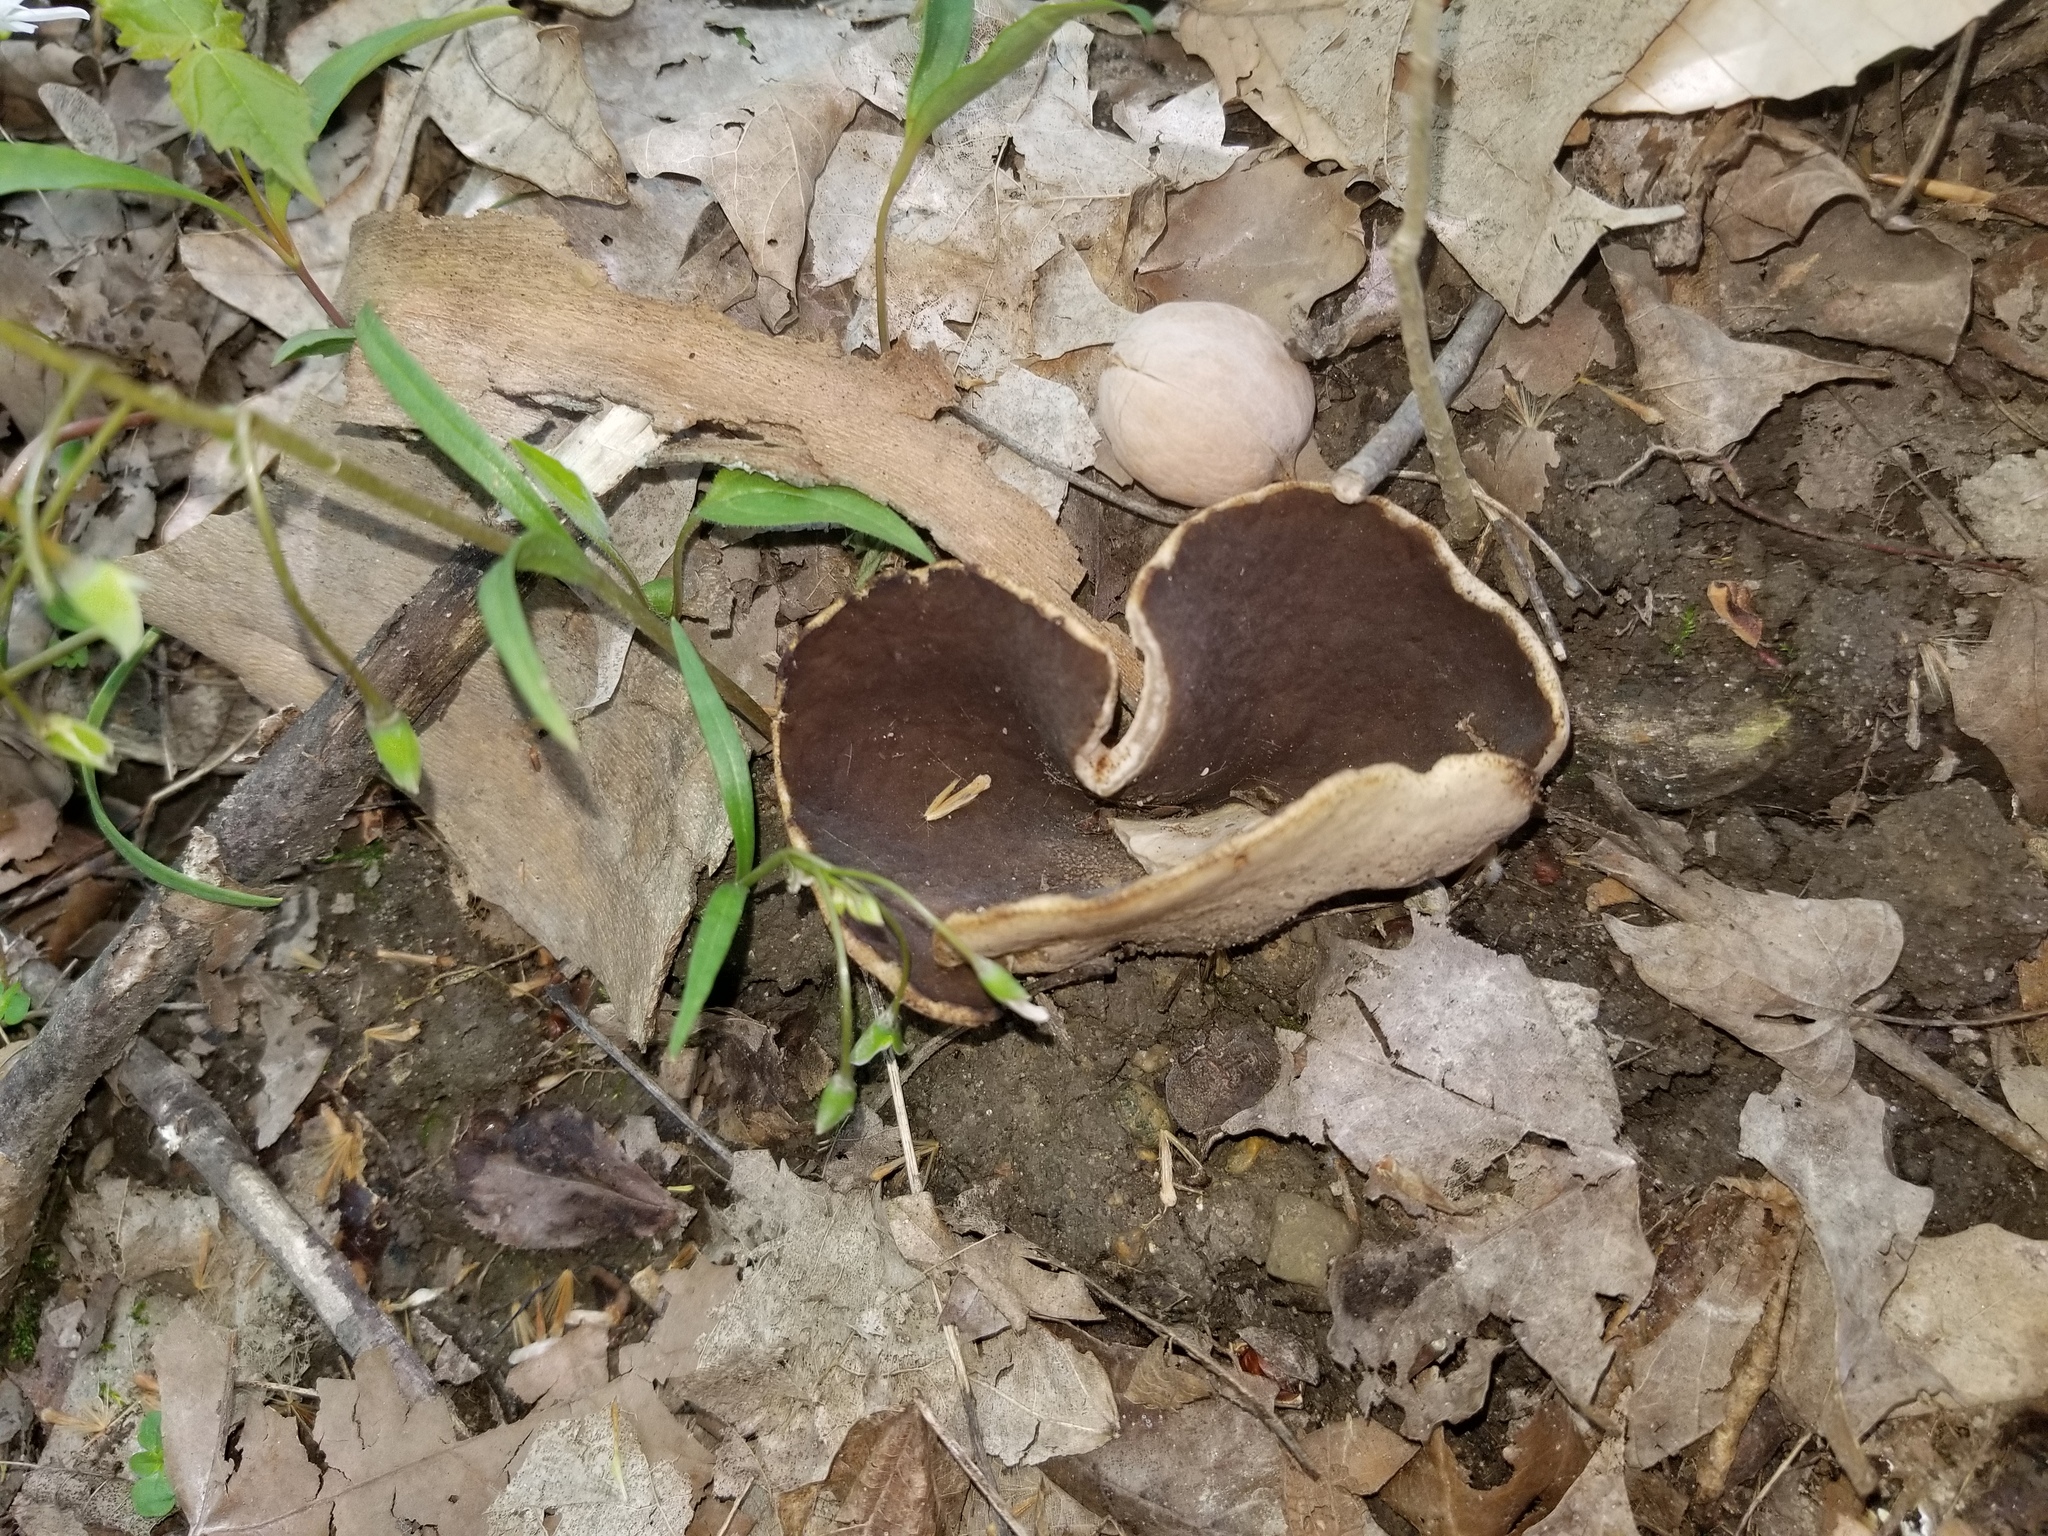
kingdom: Fungi
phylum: Ascomycota
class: Pezizomycetes
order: Pezizales
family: Morchellaceae
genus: Disciotis
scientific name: Disciotis venosa
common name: Bleach cup
